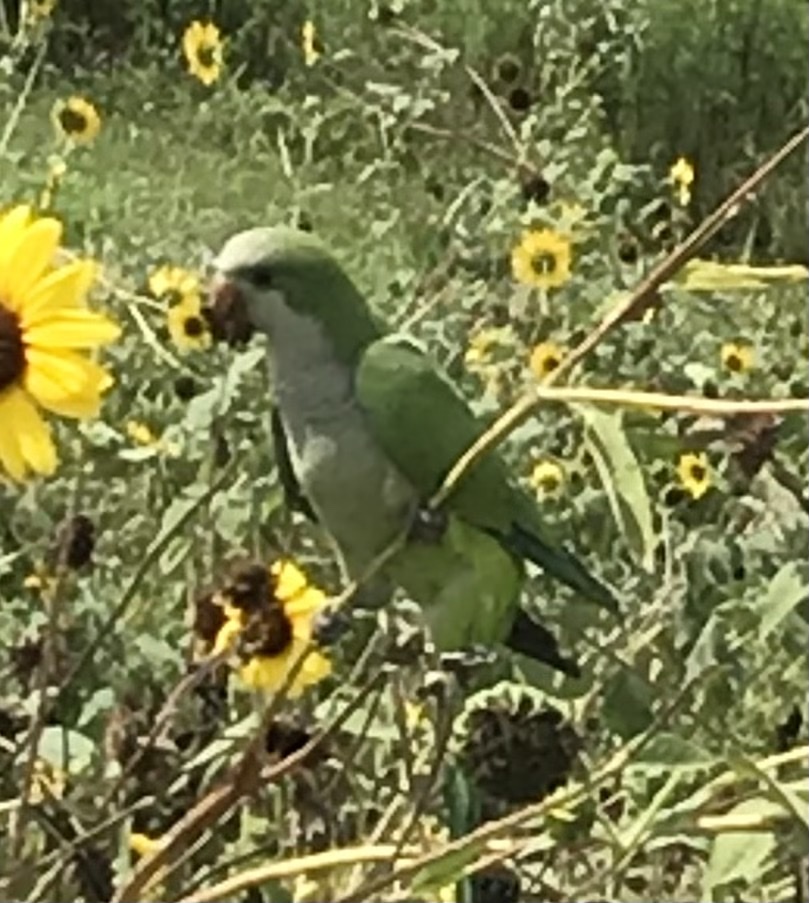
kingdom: Animalia
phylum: Chordata
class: Aves
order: Psittaciformes
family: Psittacidae
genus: Myiopsitta
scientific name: Myiopsitta monachus
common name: Monk parakeet
